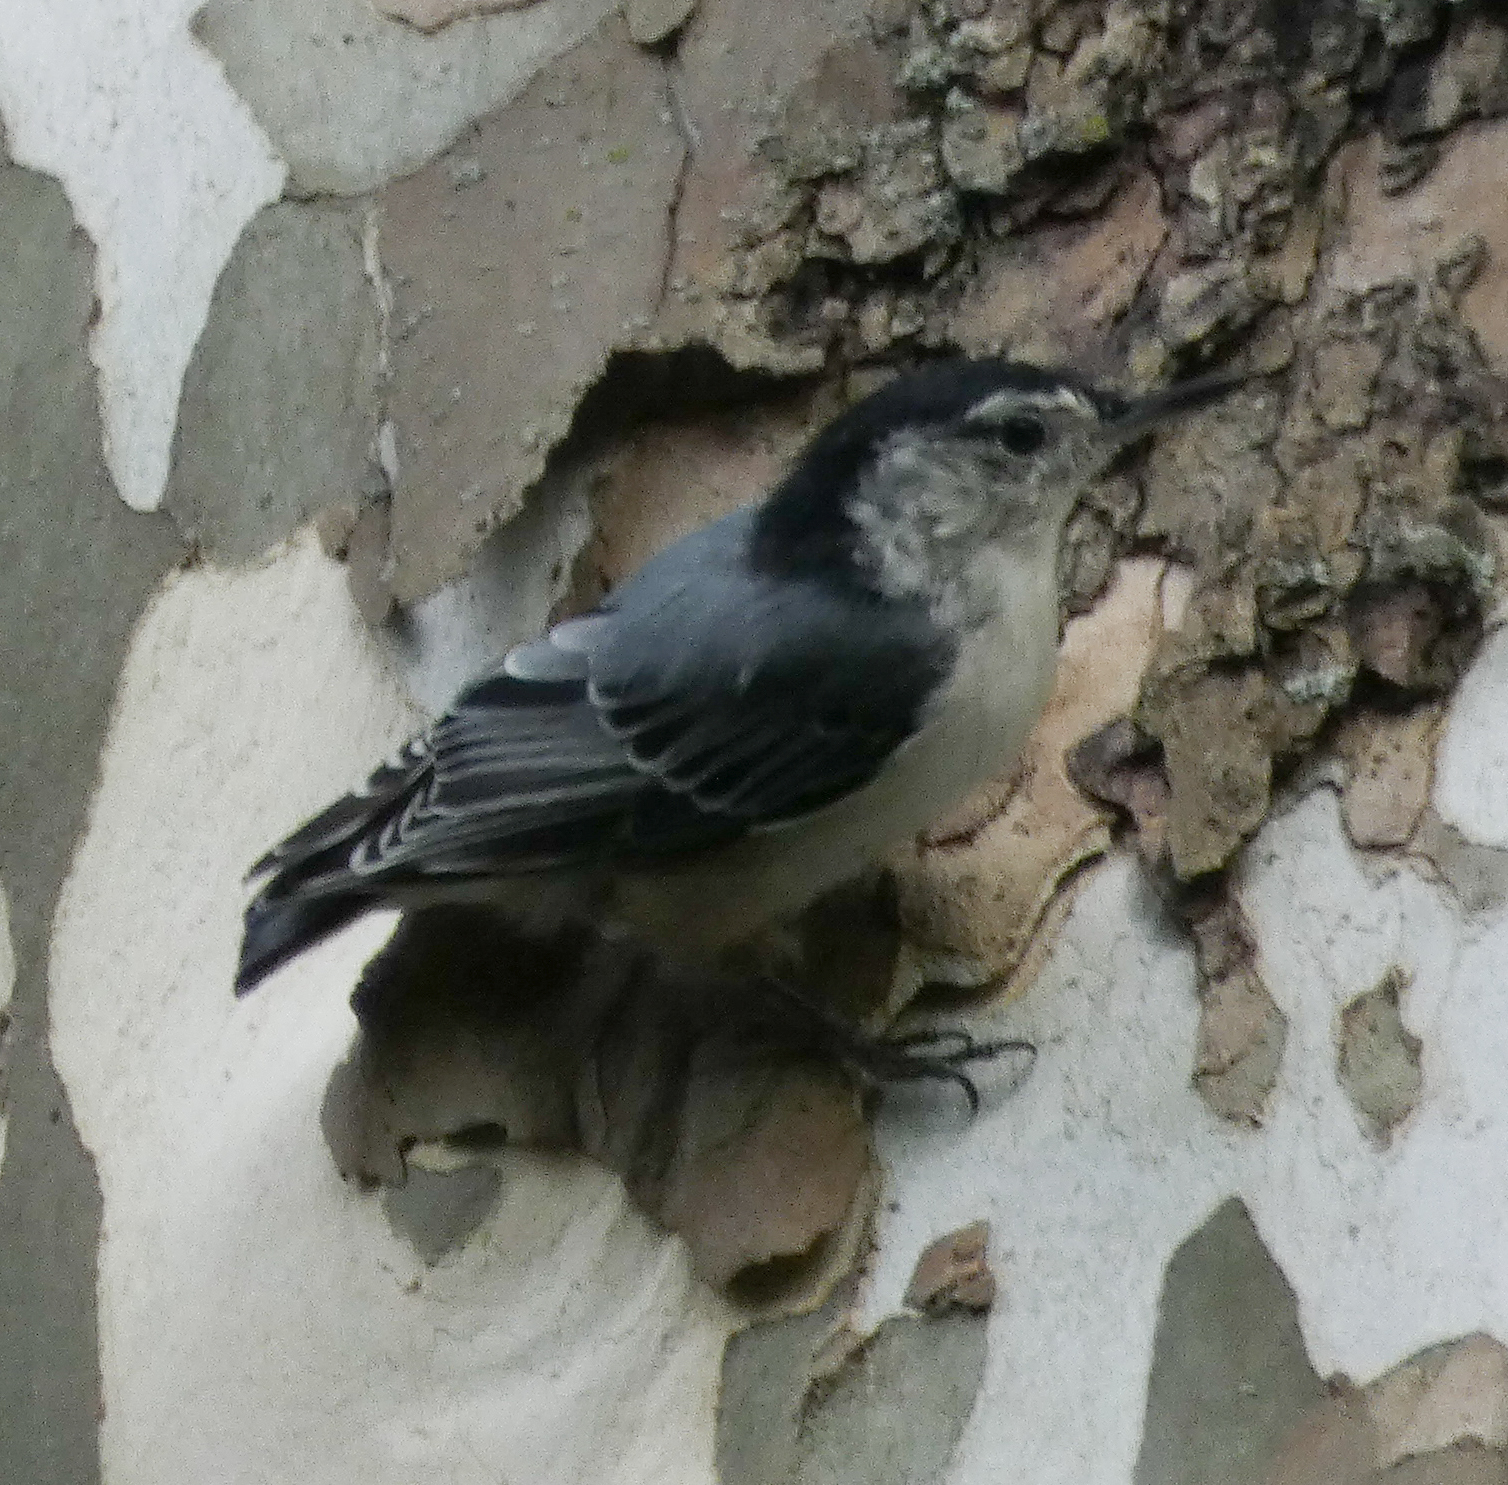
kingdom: Animalia
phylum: Chordata
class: Aves
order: Passeriformes
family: Sittidae
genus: Sitta
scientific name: Sitta carolinensis
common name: White-breasted nuthatch
